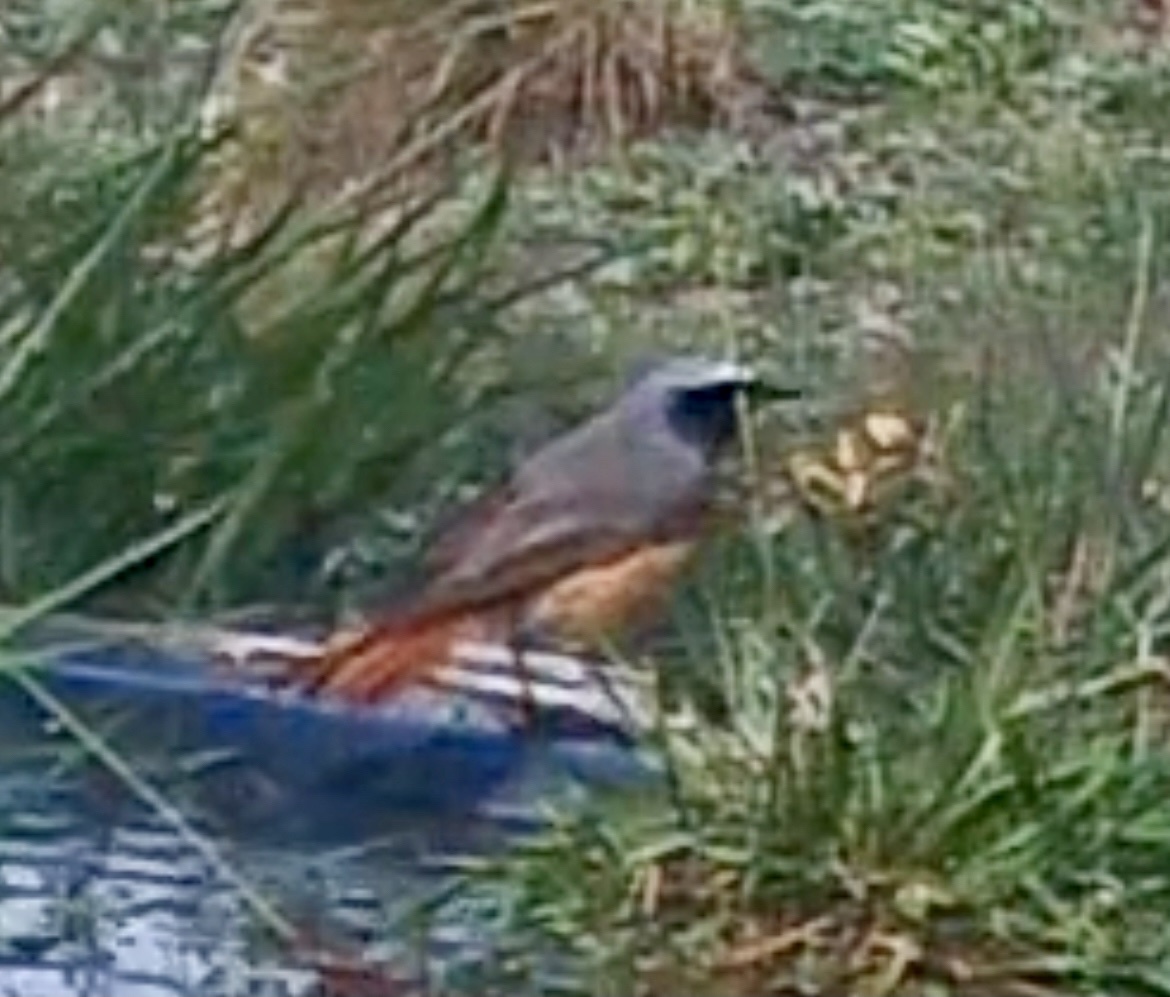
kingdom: Animalia
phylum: Chordata
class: Aves
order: Passeriformes
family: Muscicapidae
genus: Phoenicurus
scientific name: Phoenicurus phoenicurus
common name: Common redstart
